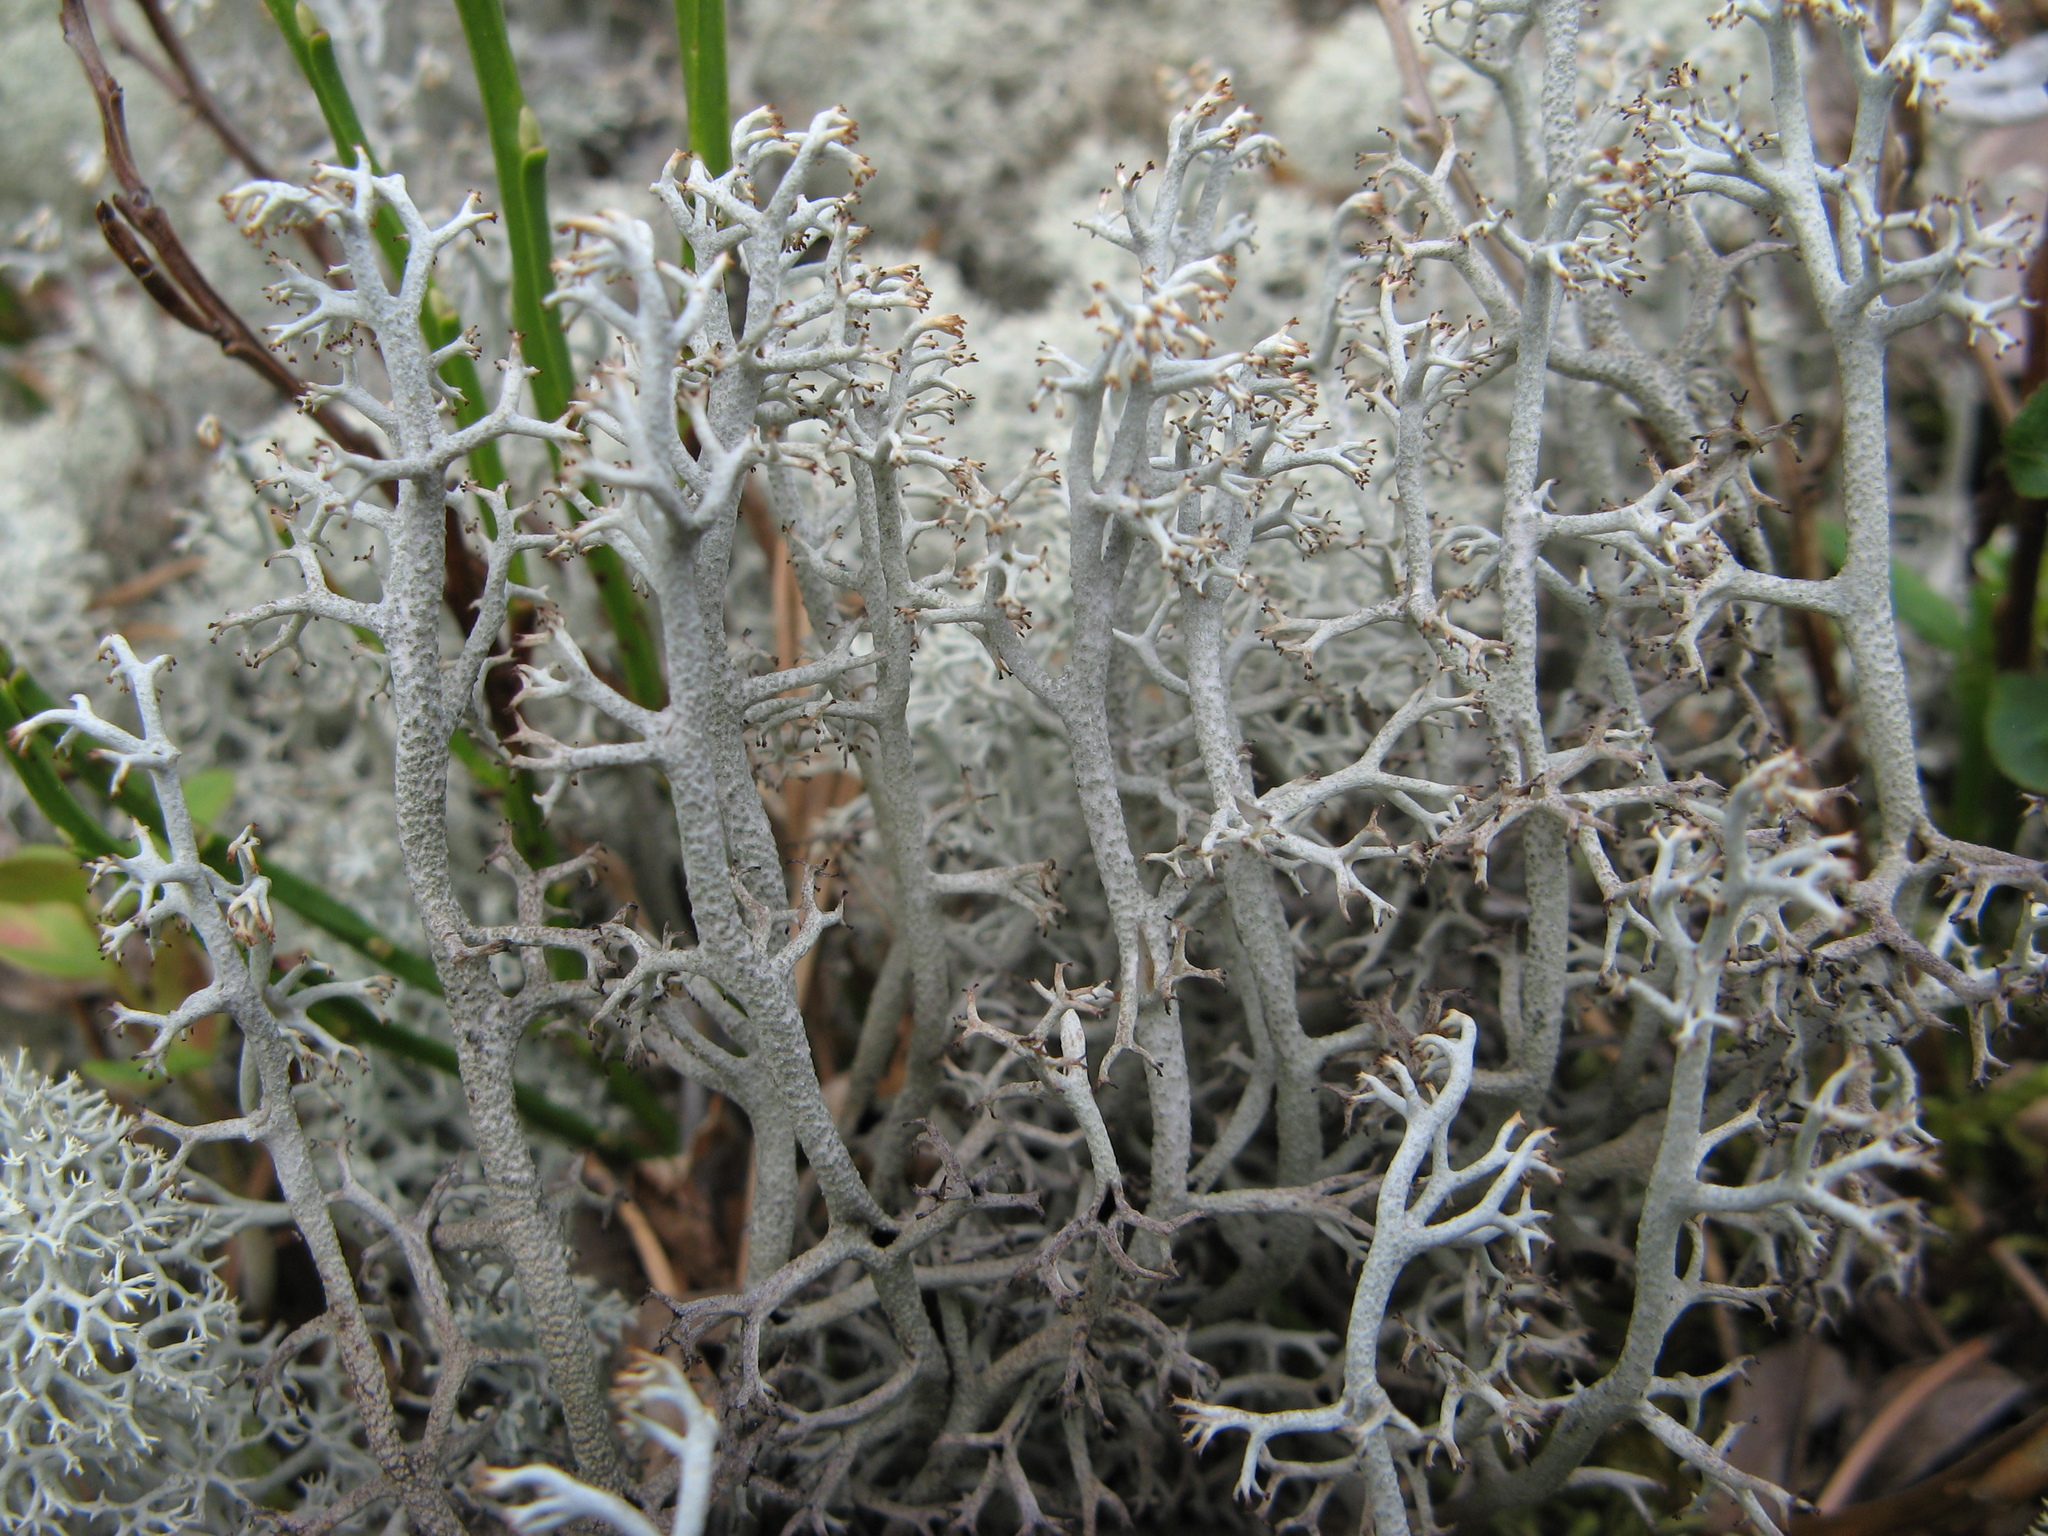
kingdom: Fungi
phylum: Ascomycota
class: Lecanoromycetes
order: Lecanorales
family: Cladoniaceae
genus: Cladonia
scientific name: Cladonia stygia
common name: Black-footed reindeer lichen
